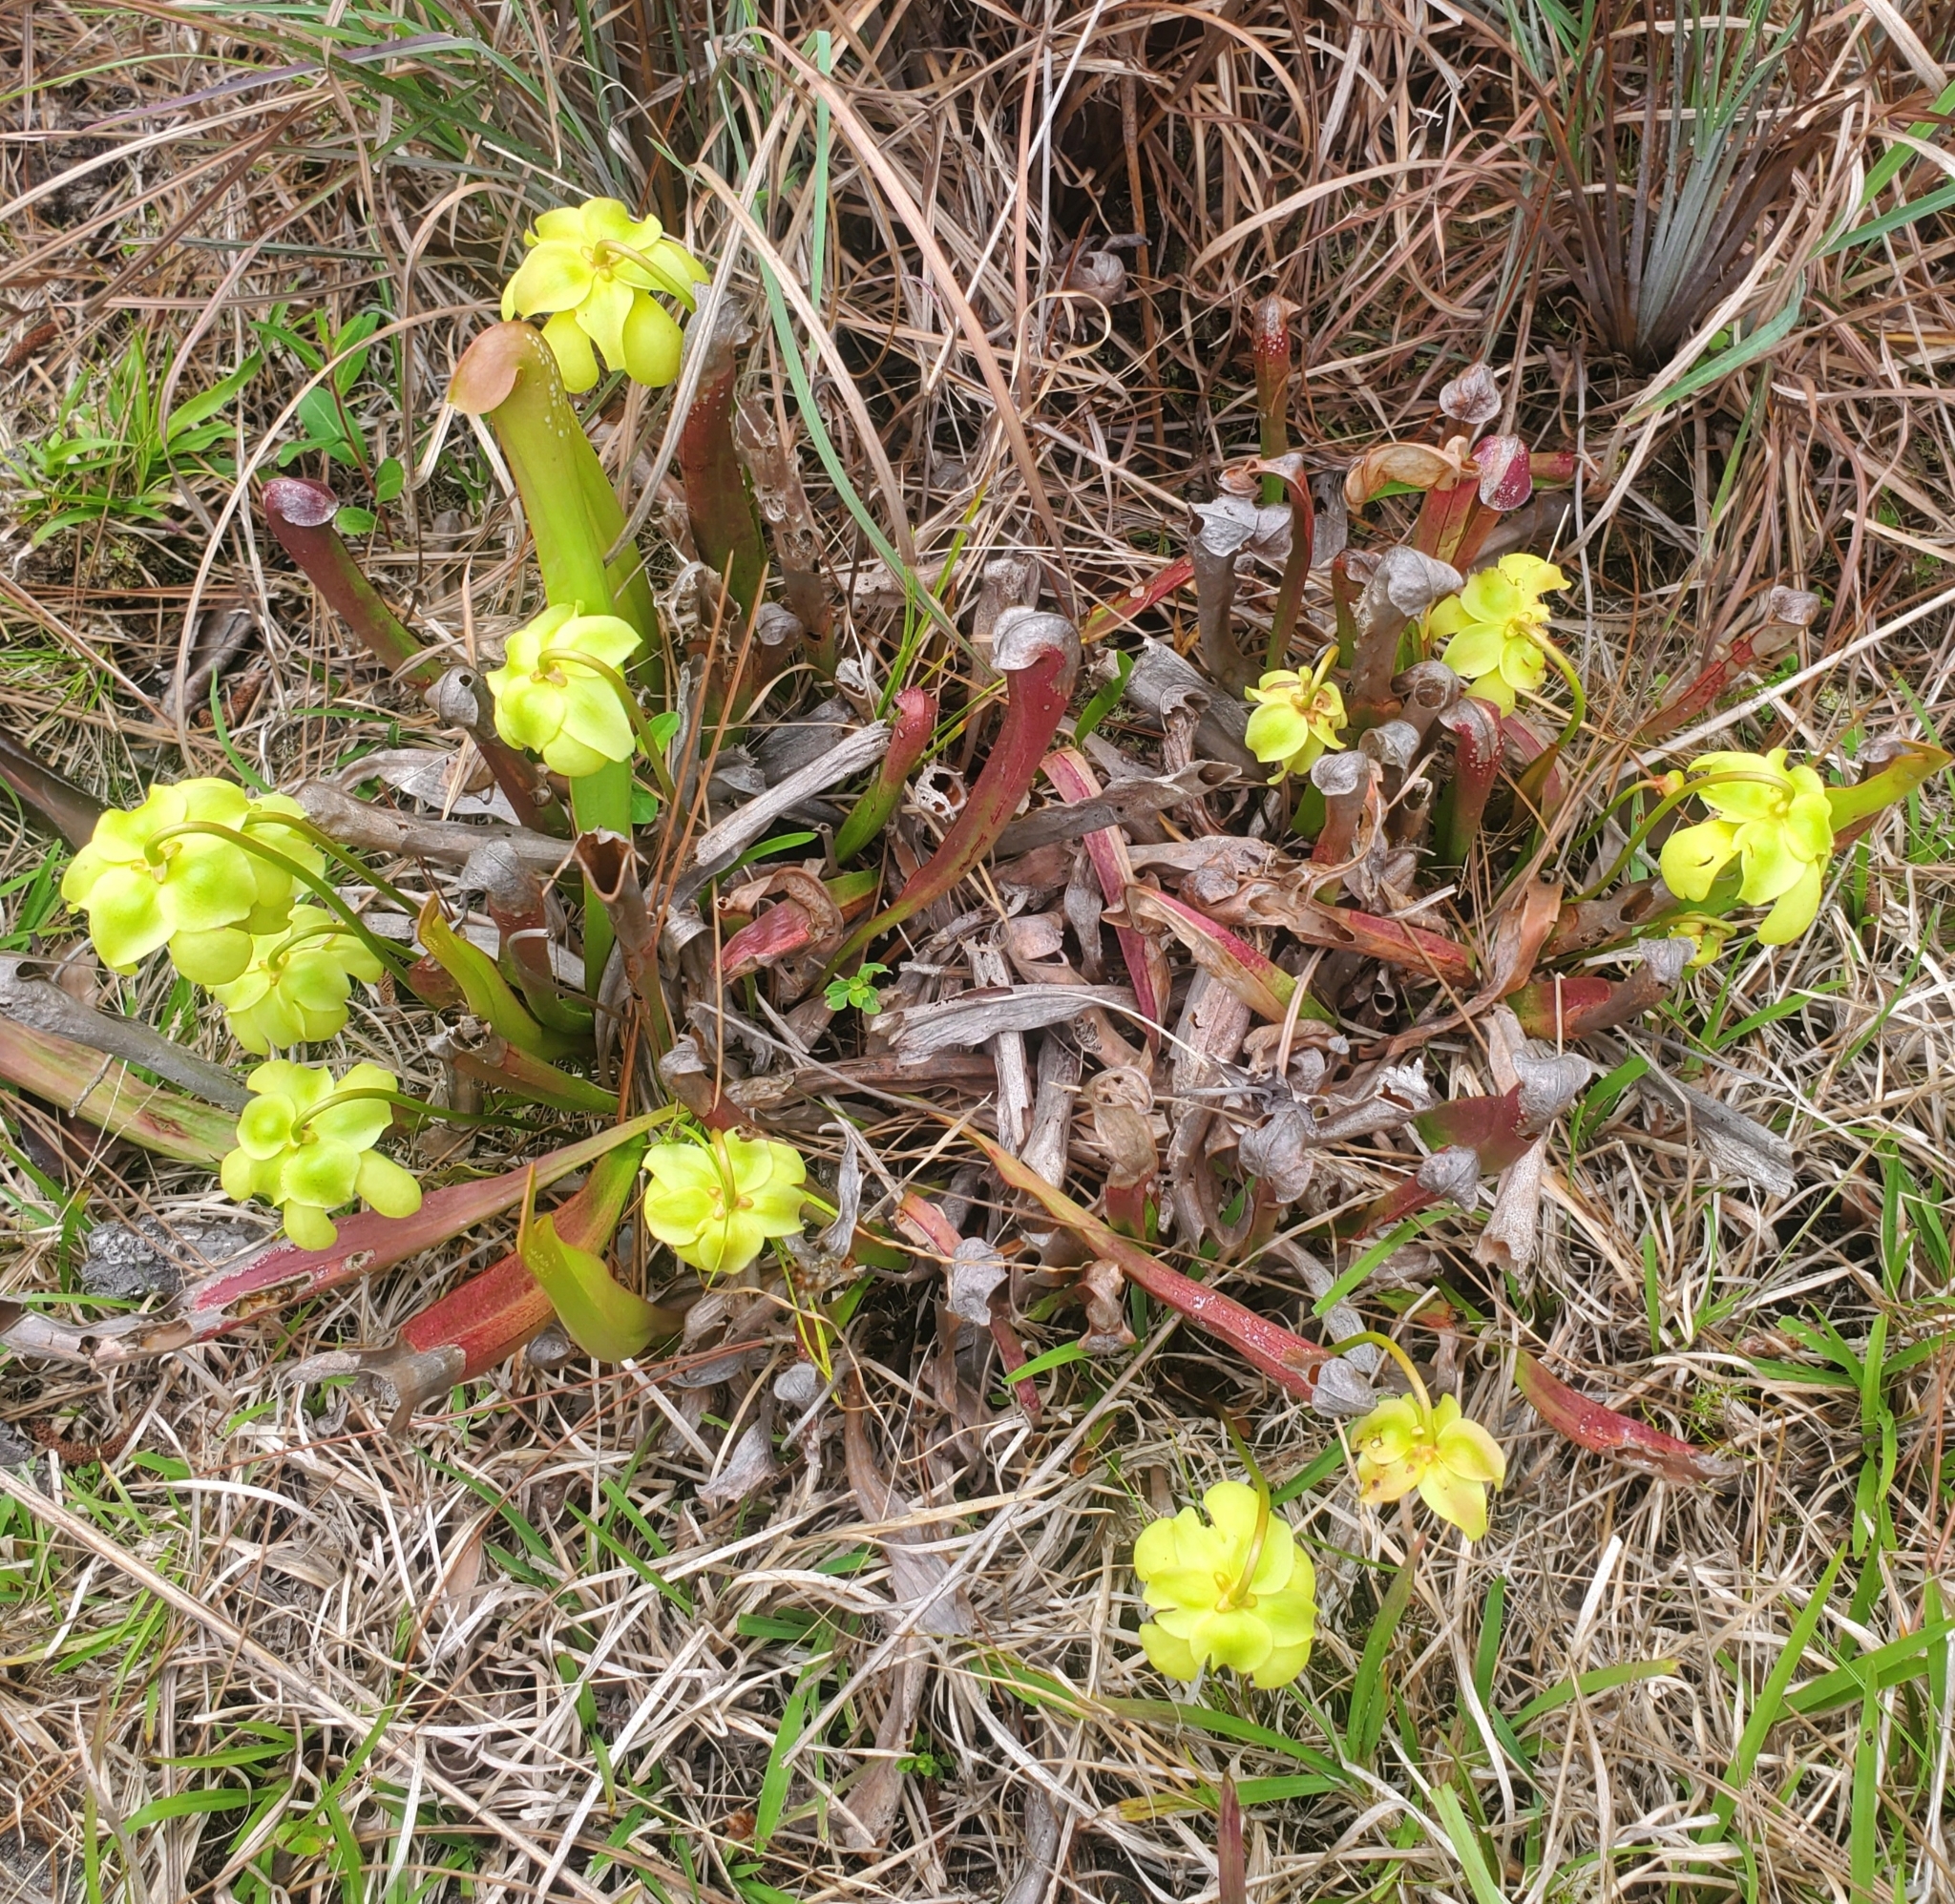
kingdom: Plantae
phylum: Tracheophyta
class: Magnoliopsida
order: Ericales
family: Sarraceniaceae
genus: Sarracenia
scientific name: Sarracenia minor
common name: Rainhat-trumpet
